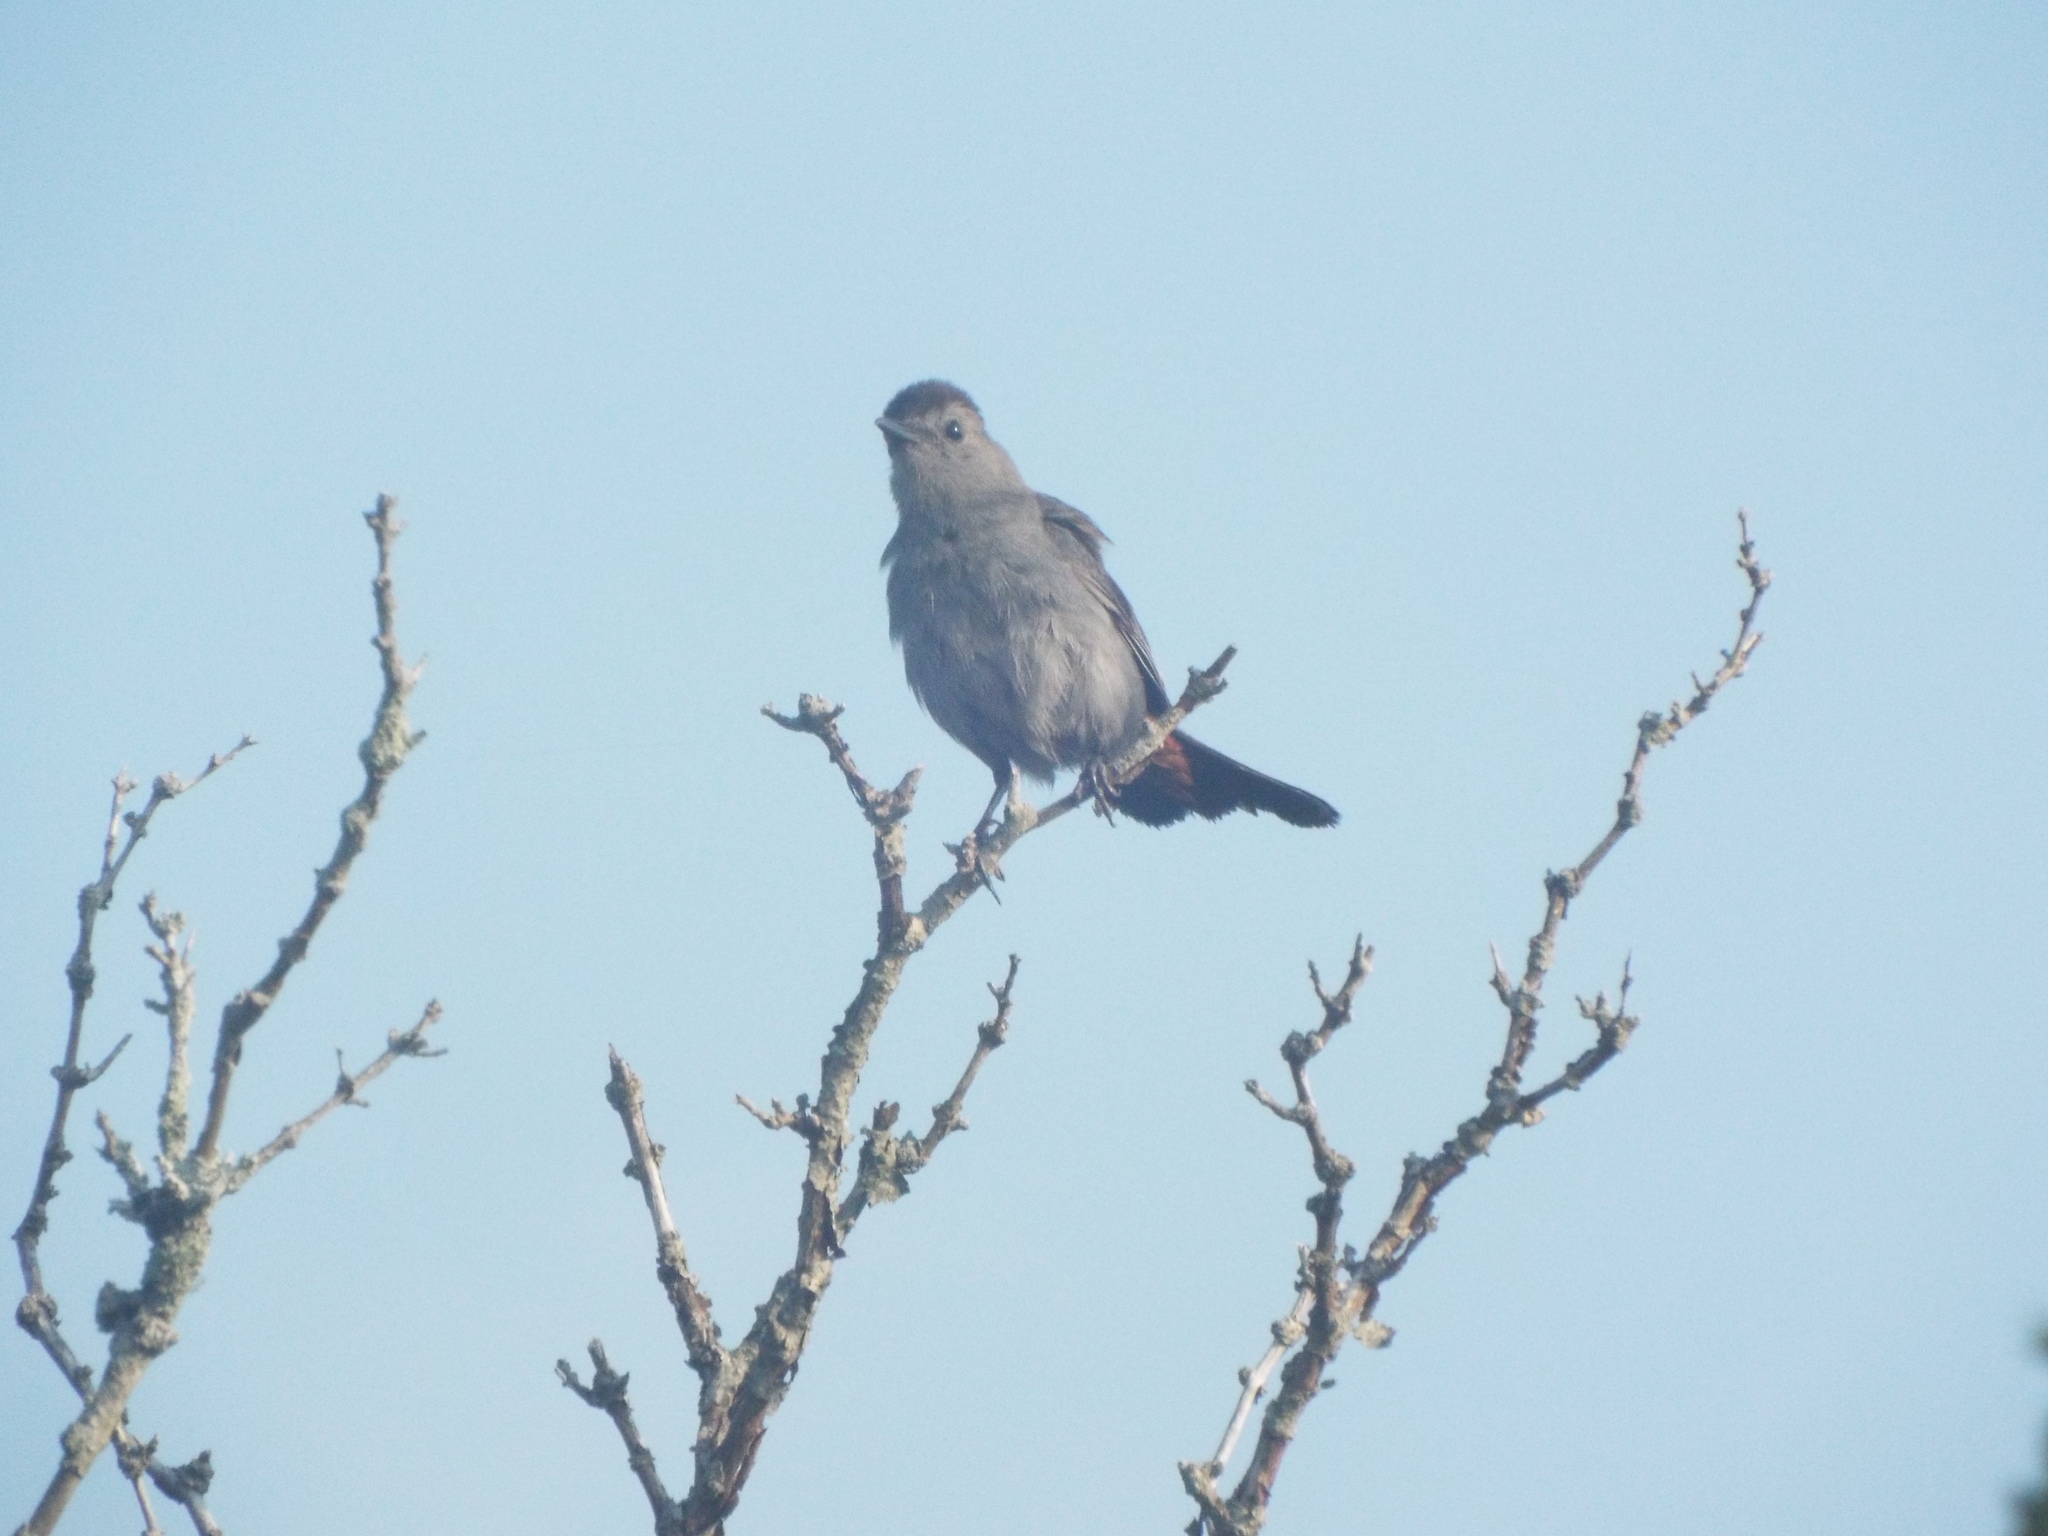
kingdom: Animalia
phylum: Chordata
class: Aves
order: Passeriformes
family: Mimidae
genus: Dumetella
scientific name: Dumetella carolinensis
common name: Gray catbird
